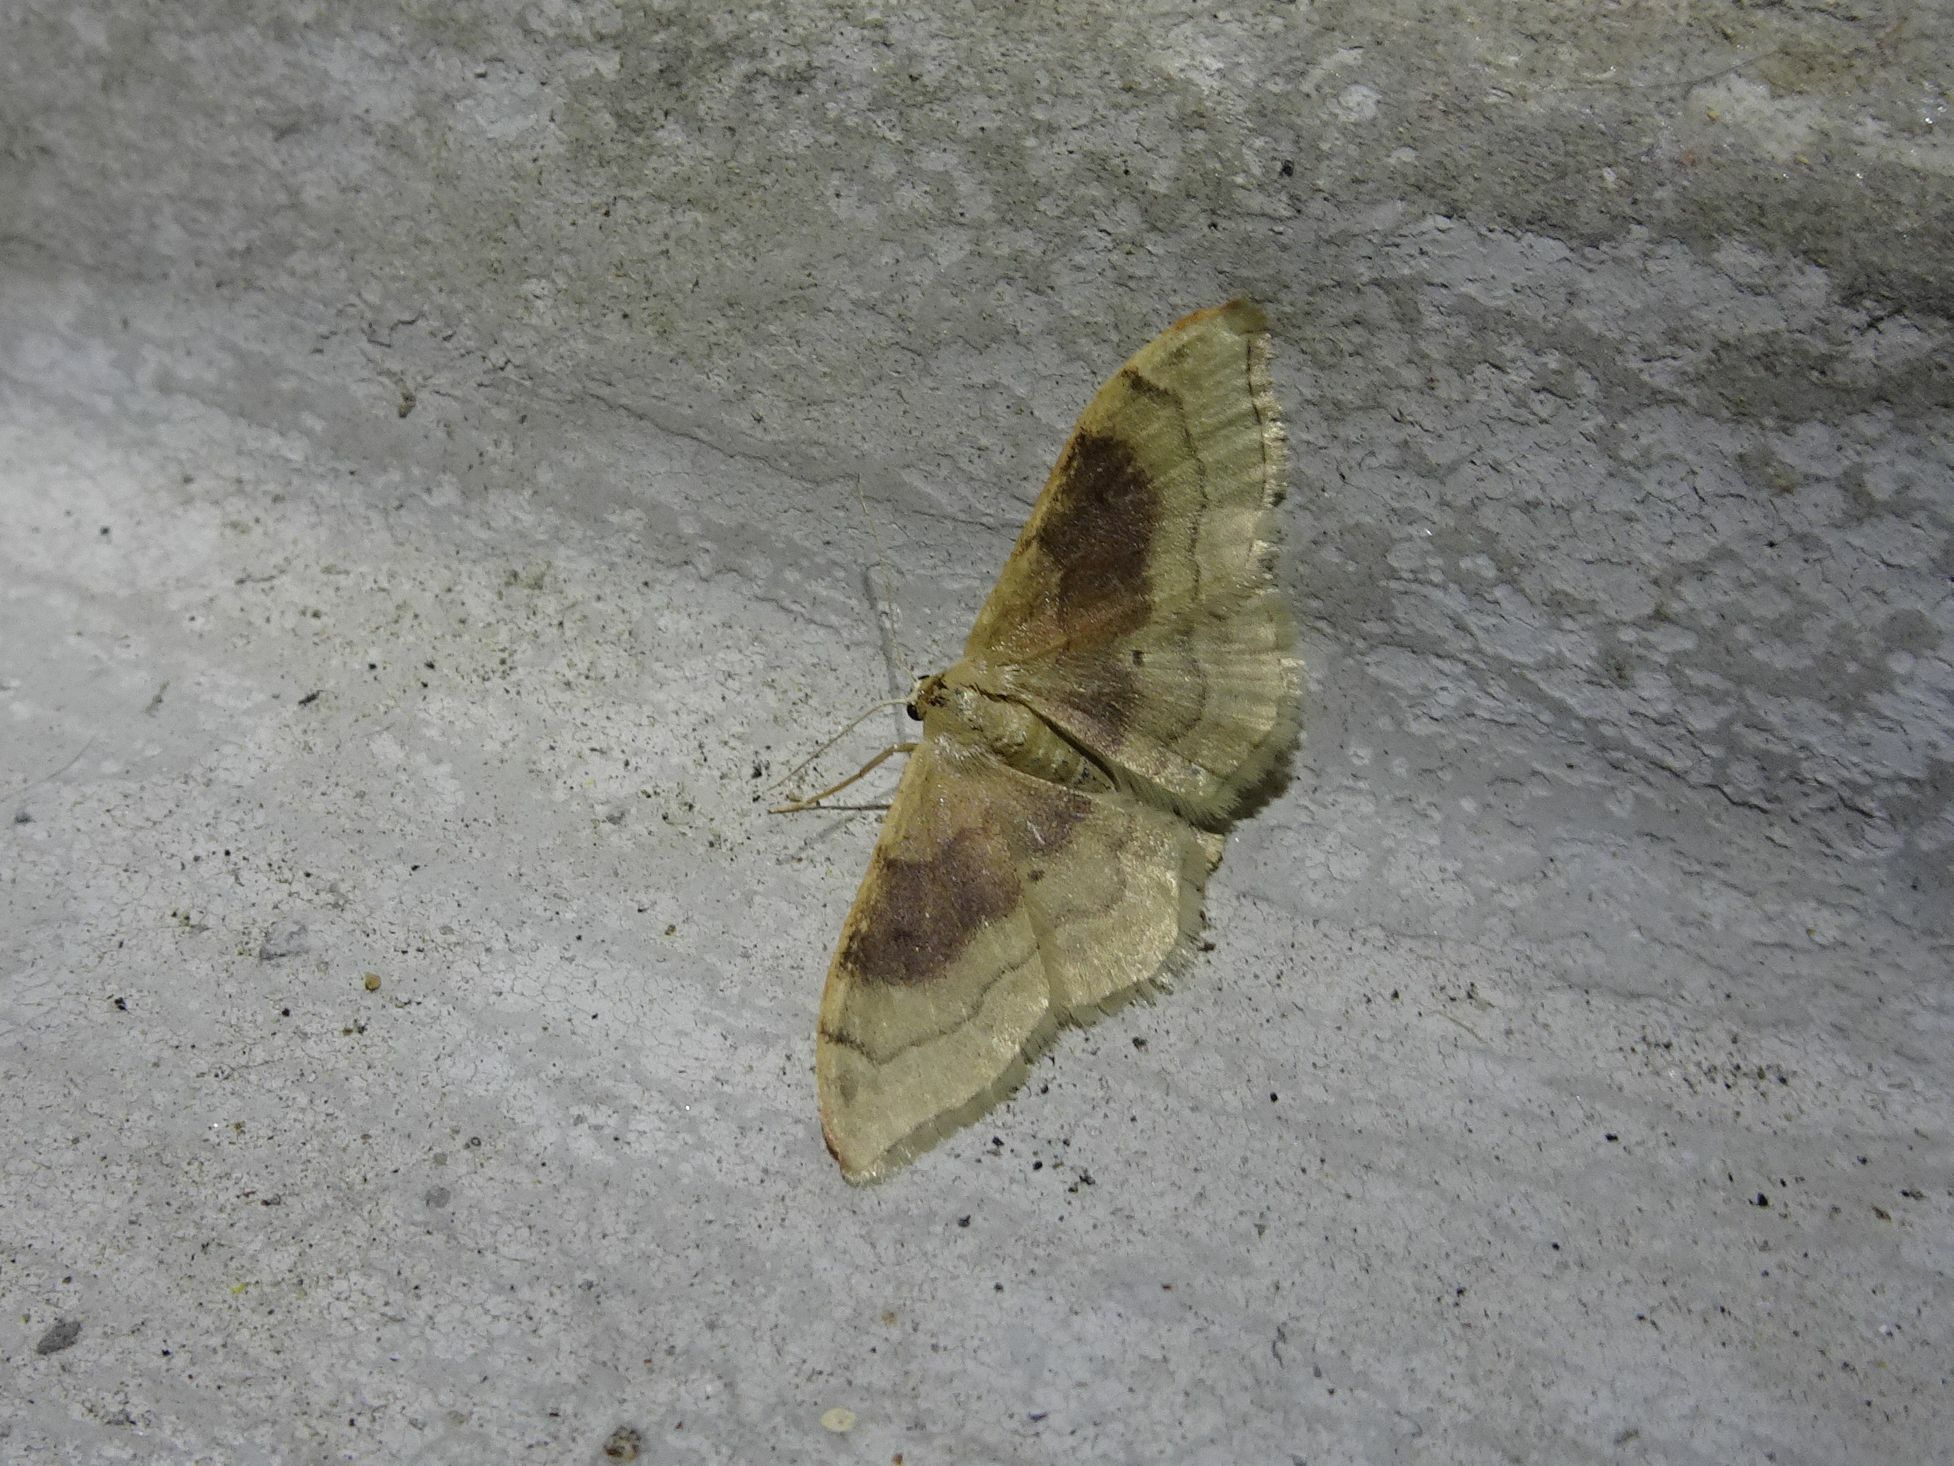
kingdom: Animalia
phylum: Arthropoda
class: Insecta
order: Lepidoptera
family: Geometridae
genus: Idaea
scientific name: Idaea degeneraria
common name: Portland ribbon wave
